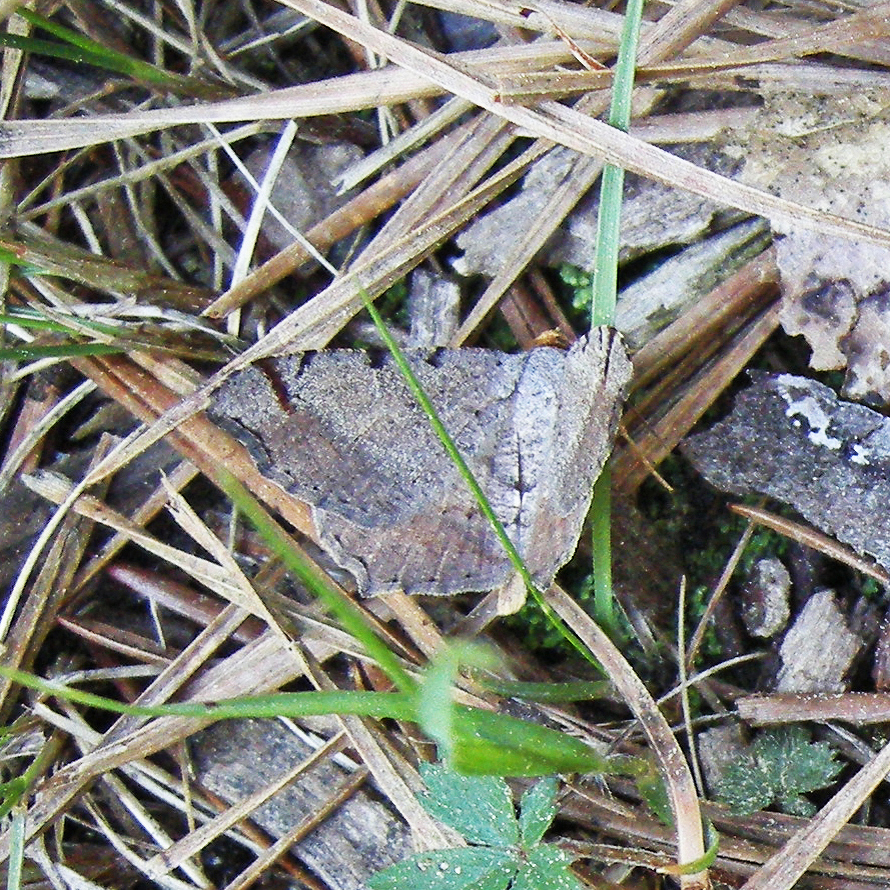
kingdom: Animalia
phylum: Arthropoda
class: Insecta
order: Lepidoptera
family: Geometridae
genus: Macaria
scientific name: Macaria bicolorata
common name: Dingy angle
